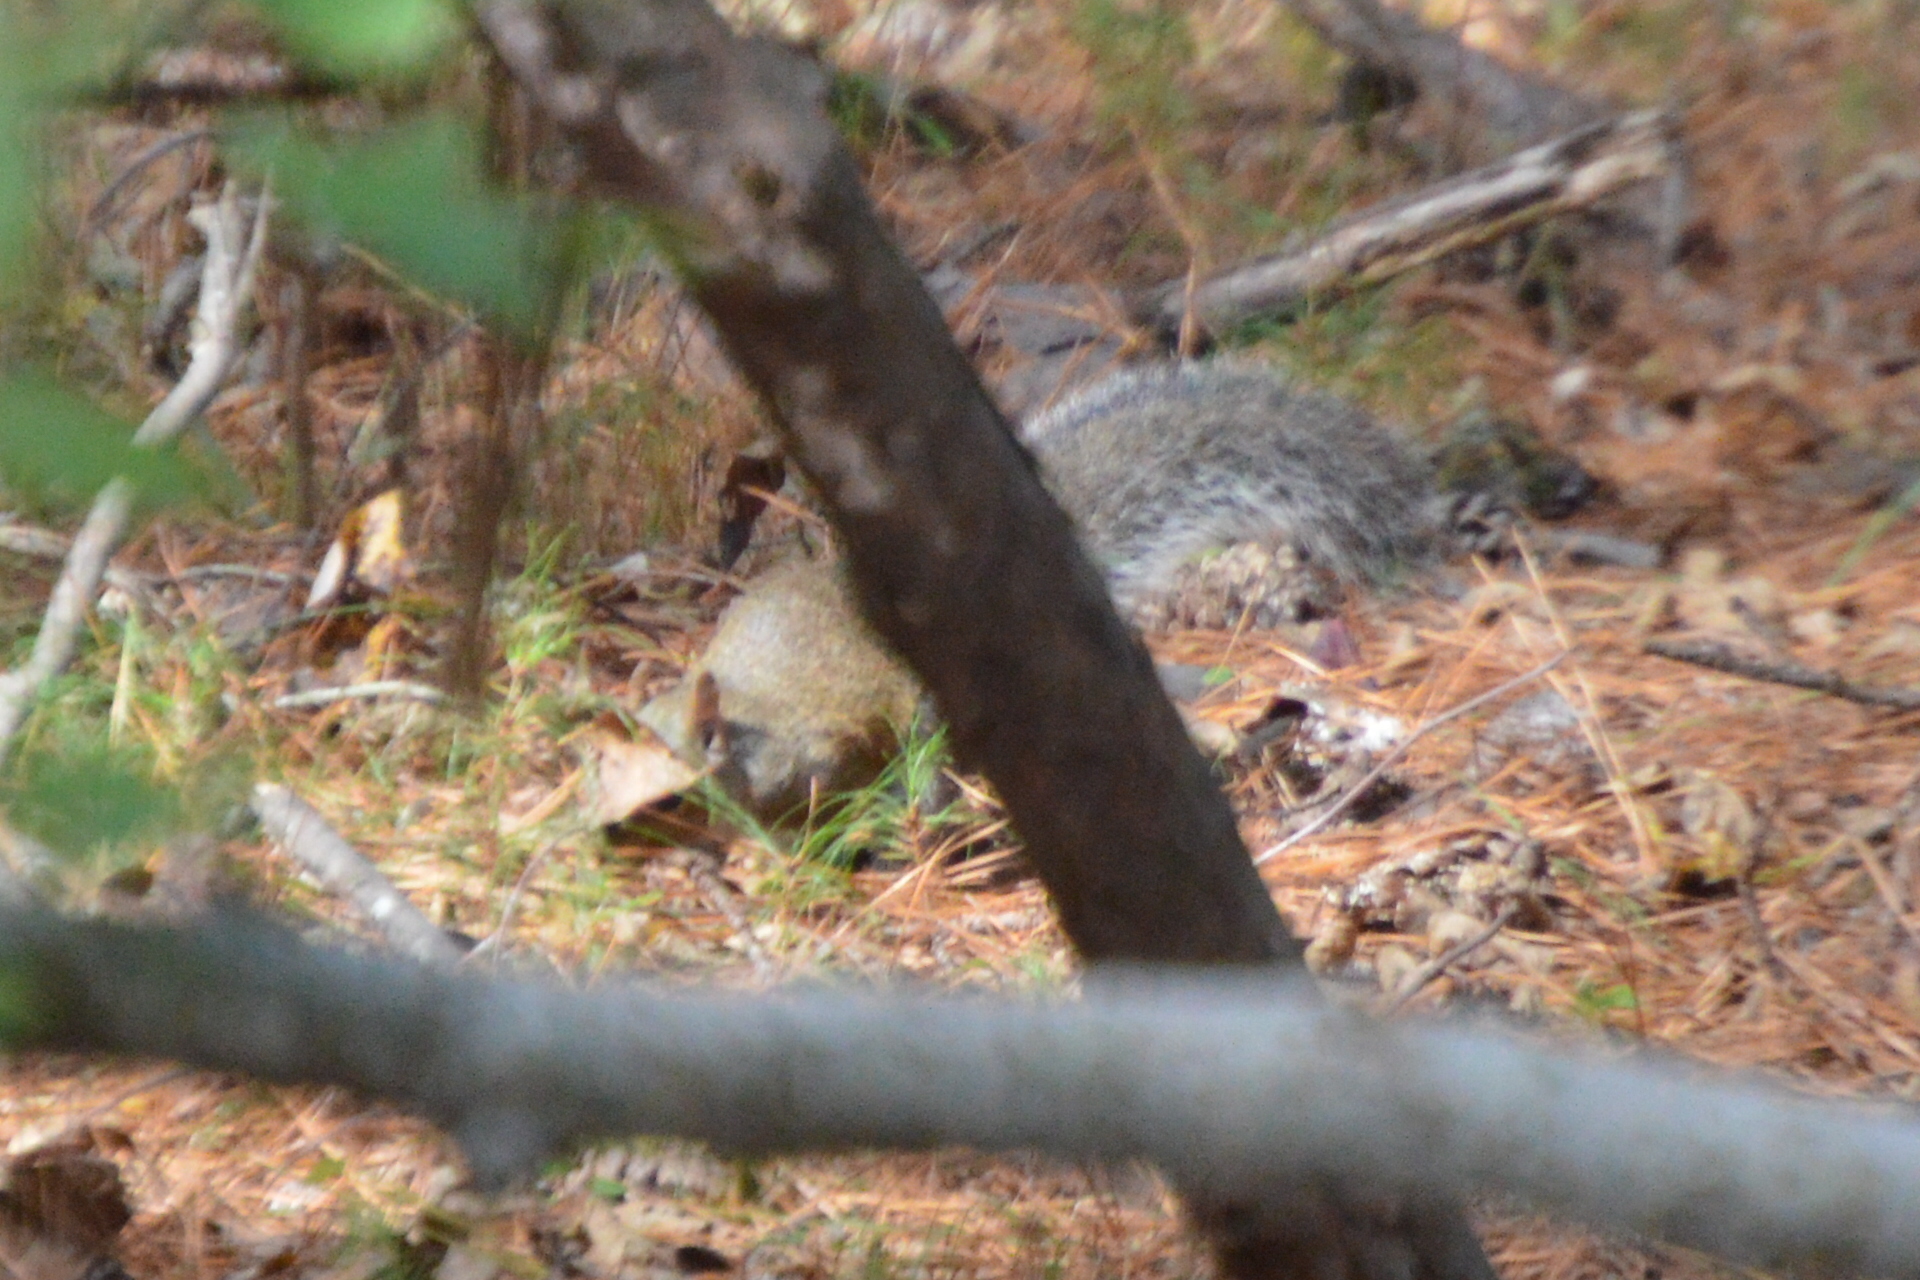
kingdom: Animalia
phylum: Chordata
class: Mammalia
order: Rodentia
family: Sciuridae
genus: Sciurus
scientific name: Sciurus carolinensis
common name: Eastern gray squirrel
